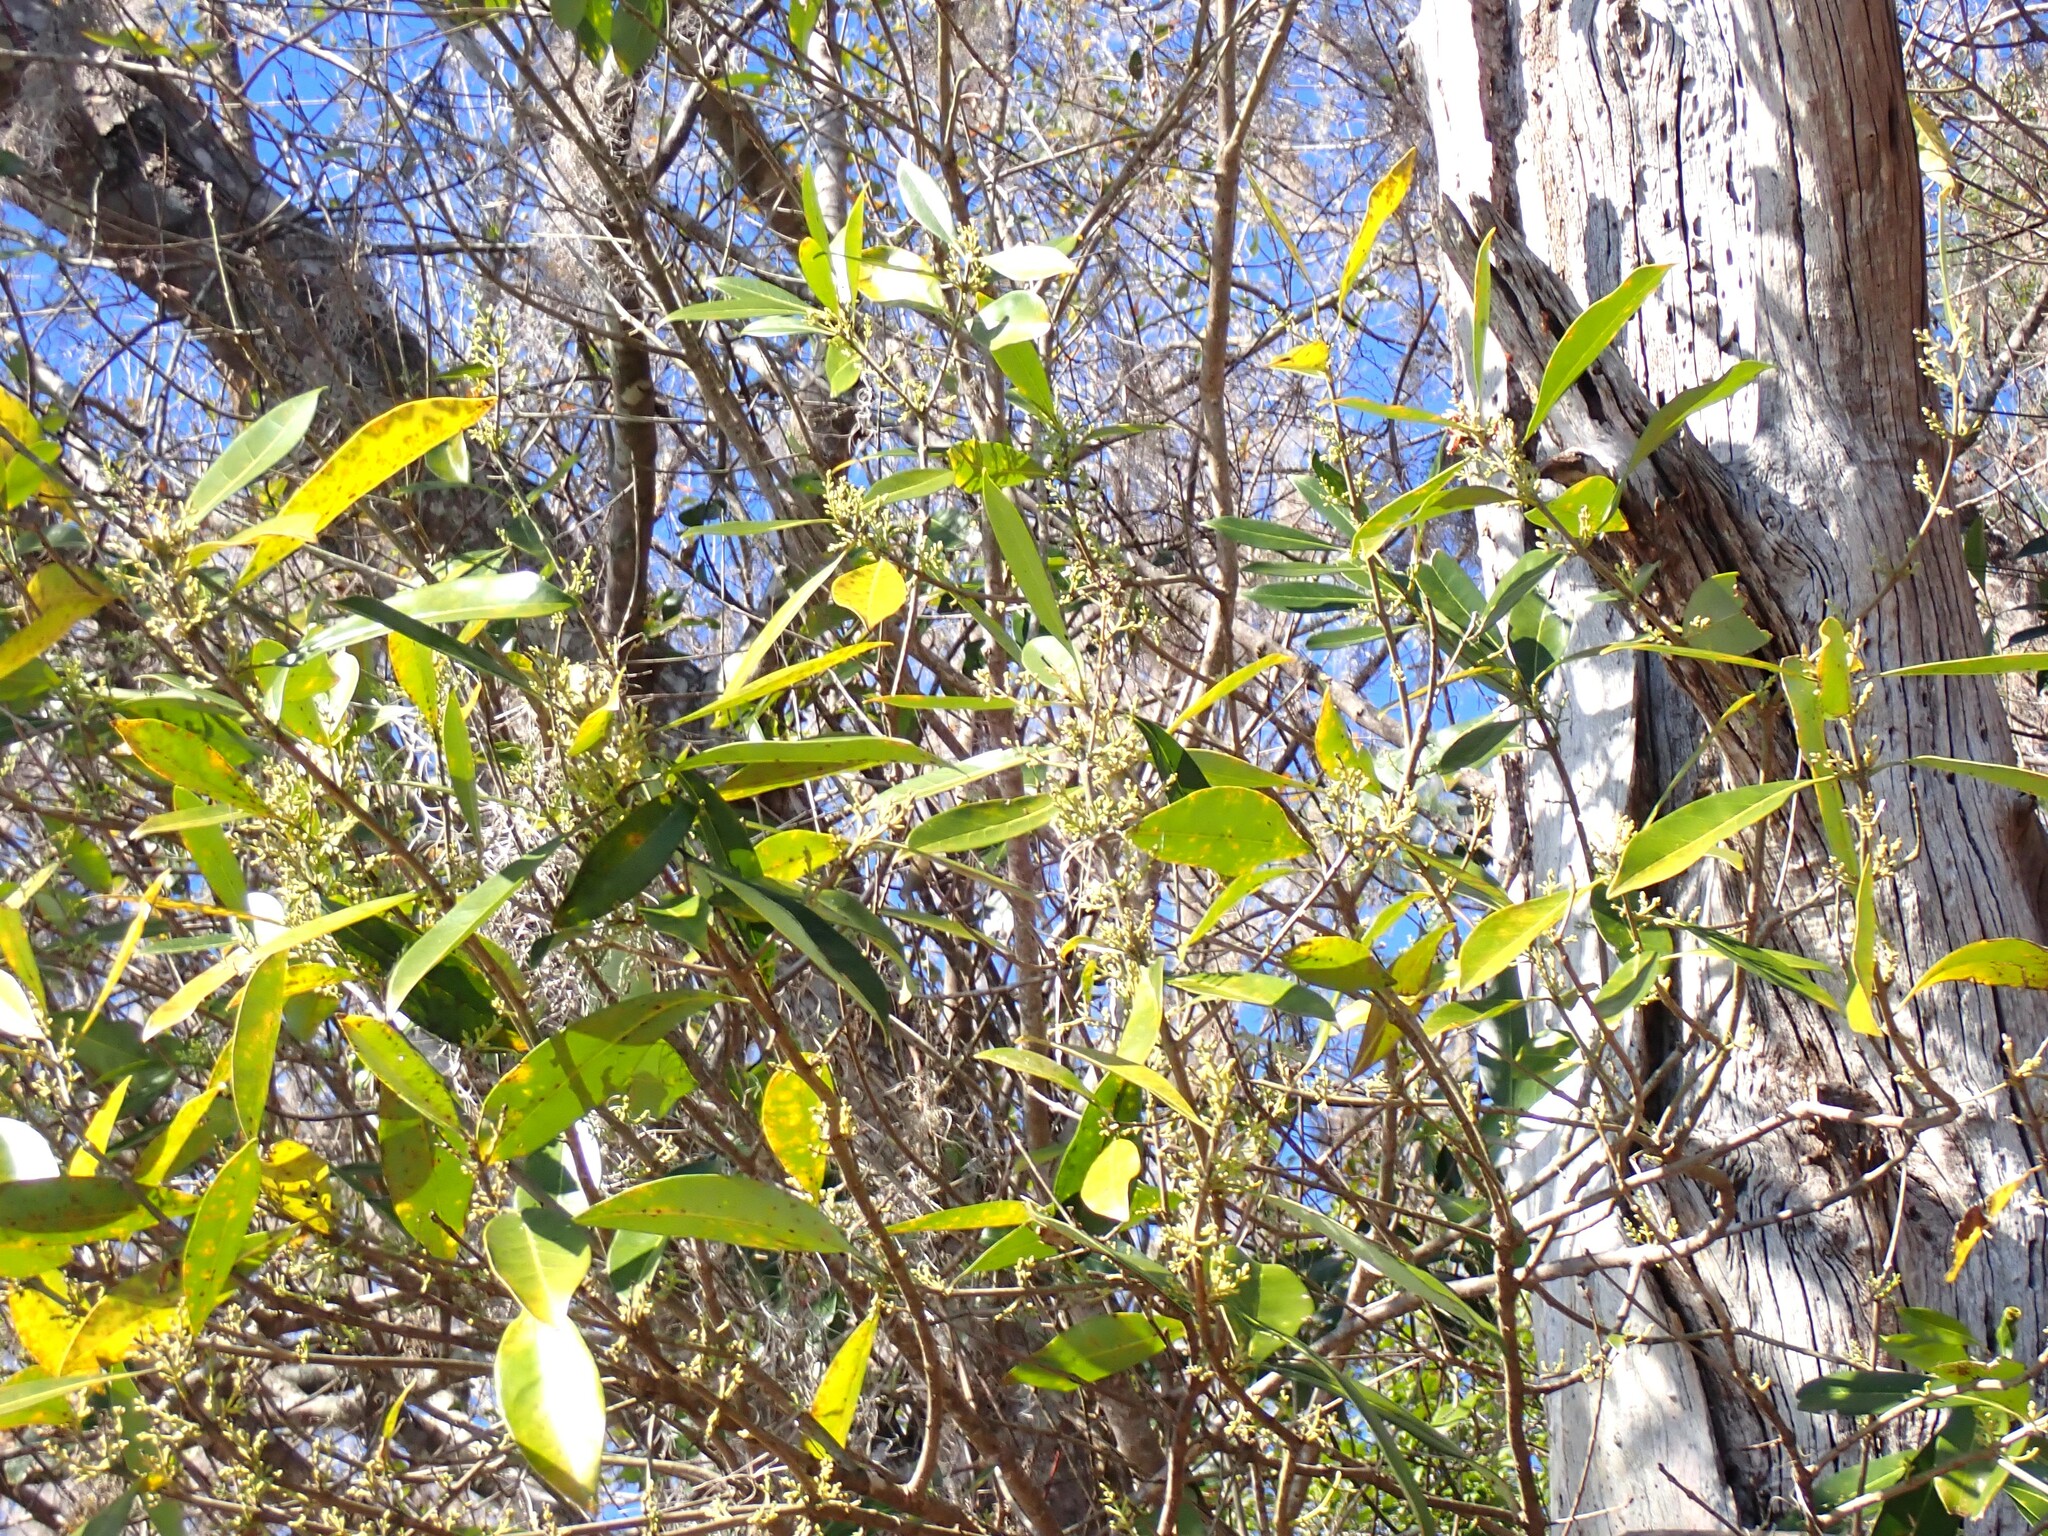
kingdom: Plantae
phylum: Tracheophyta
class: Magnoliopsida
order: Lamiales
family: Oleaceae
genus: Cartrema
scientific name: Cartrema americana
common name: Devilwood
